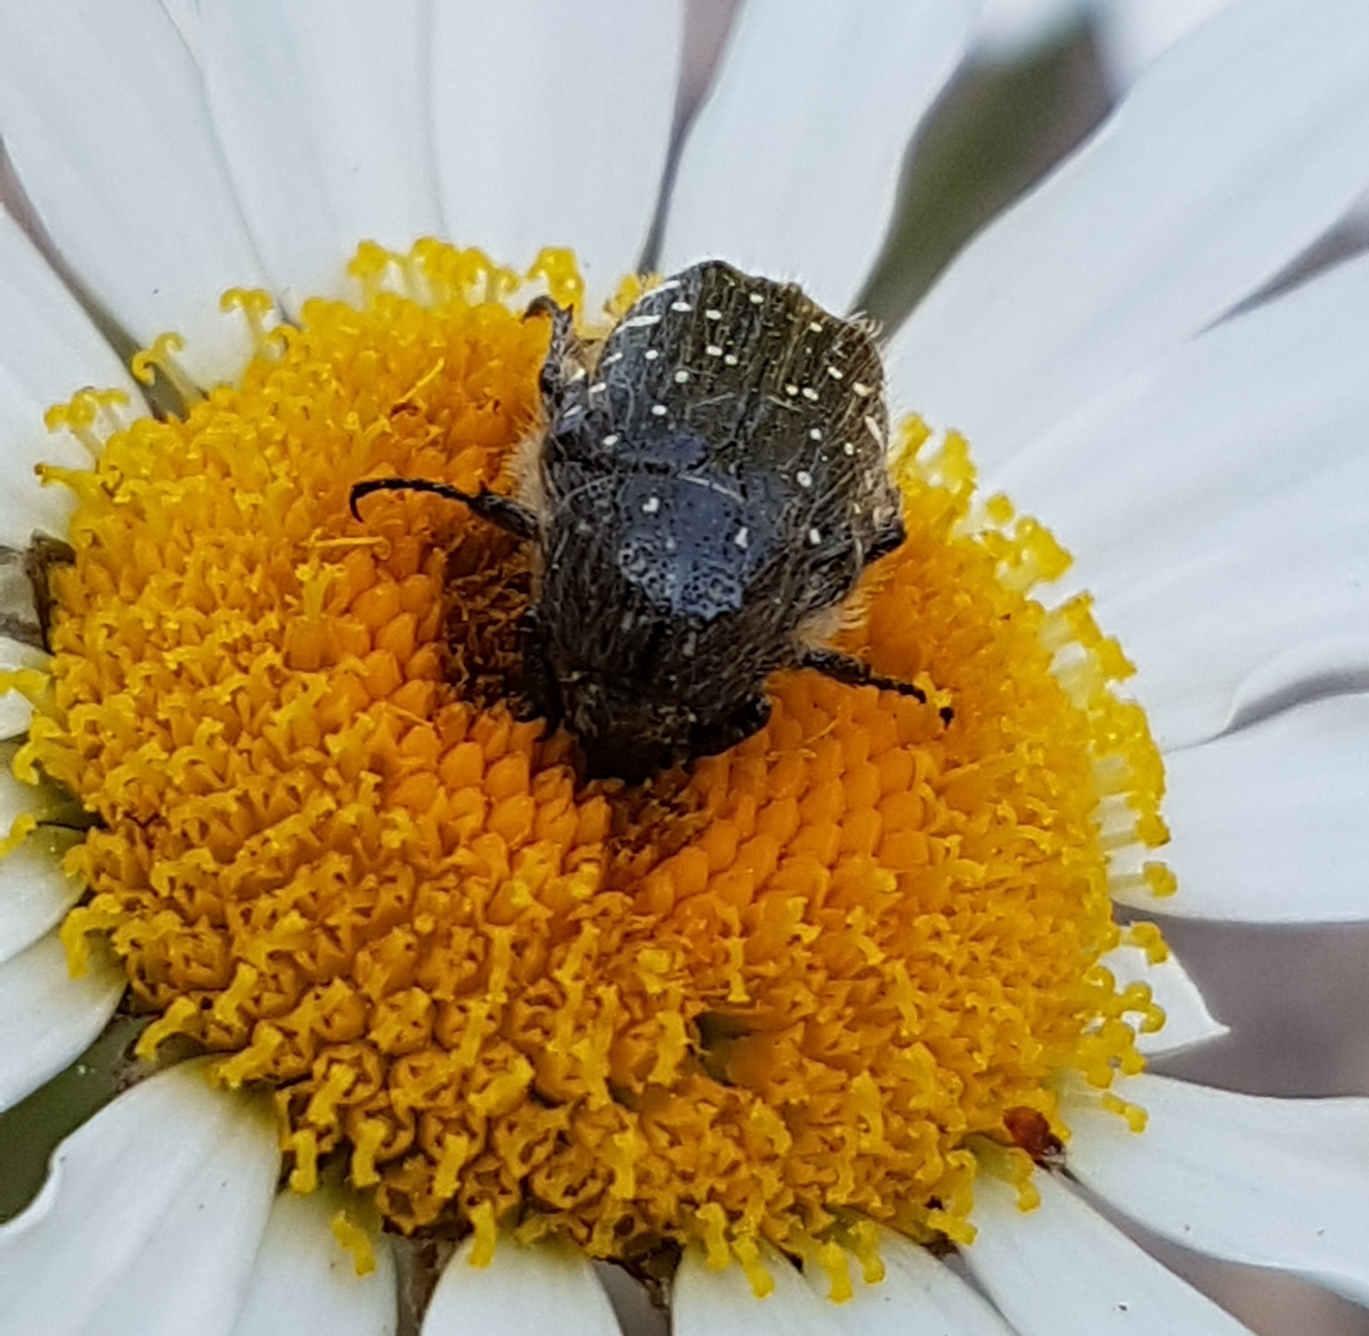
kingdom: Animalia
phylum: Arthropoda
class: Insecta
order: Coleoptera
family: Scarabaeidae
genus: Oxythyrea
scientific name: Oxythyrea funesta
